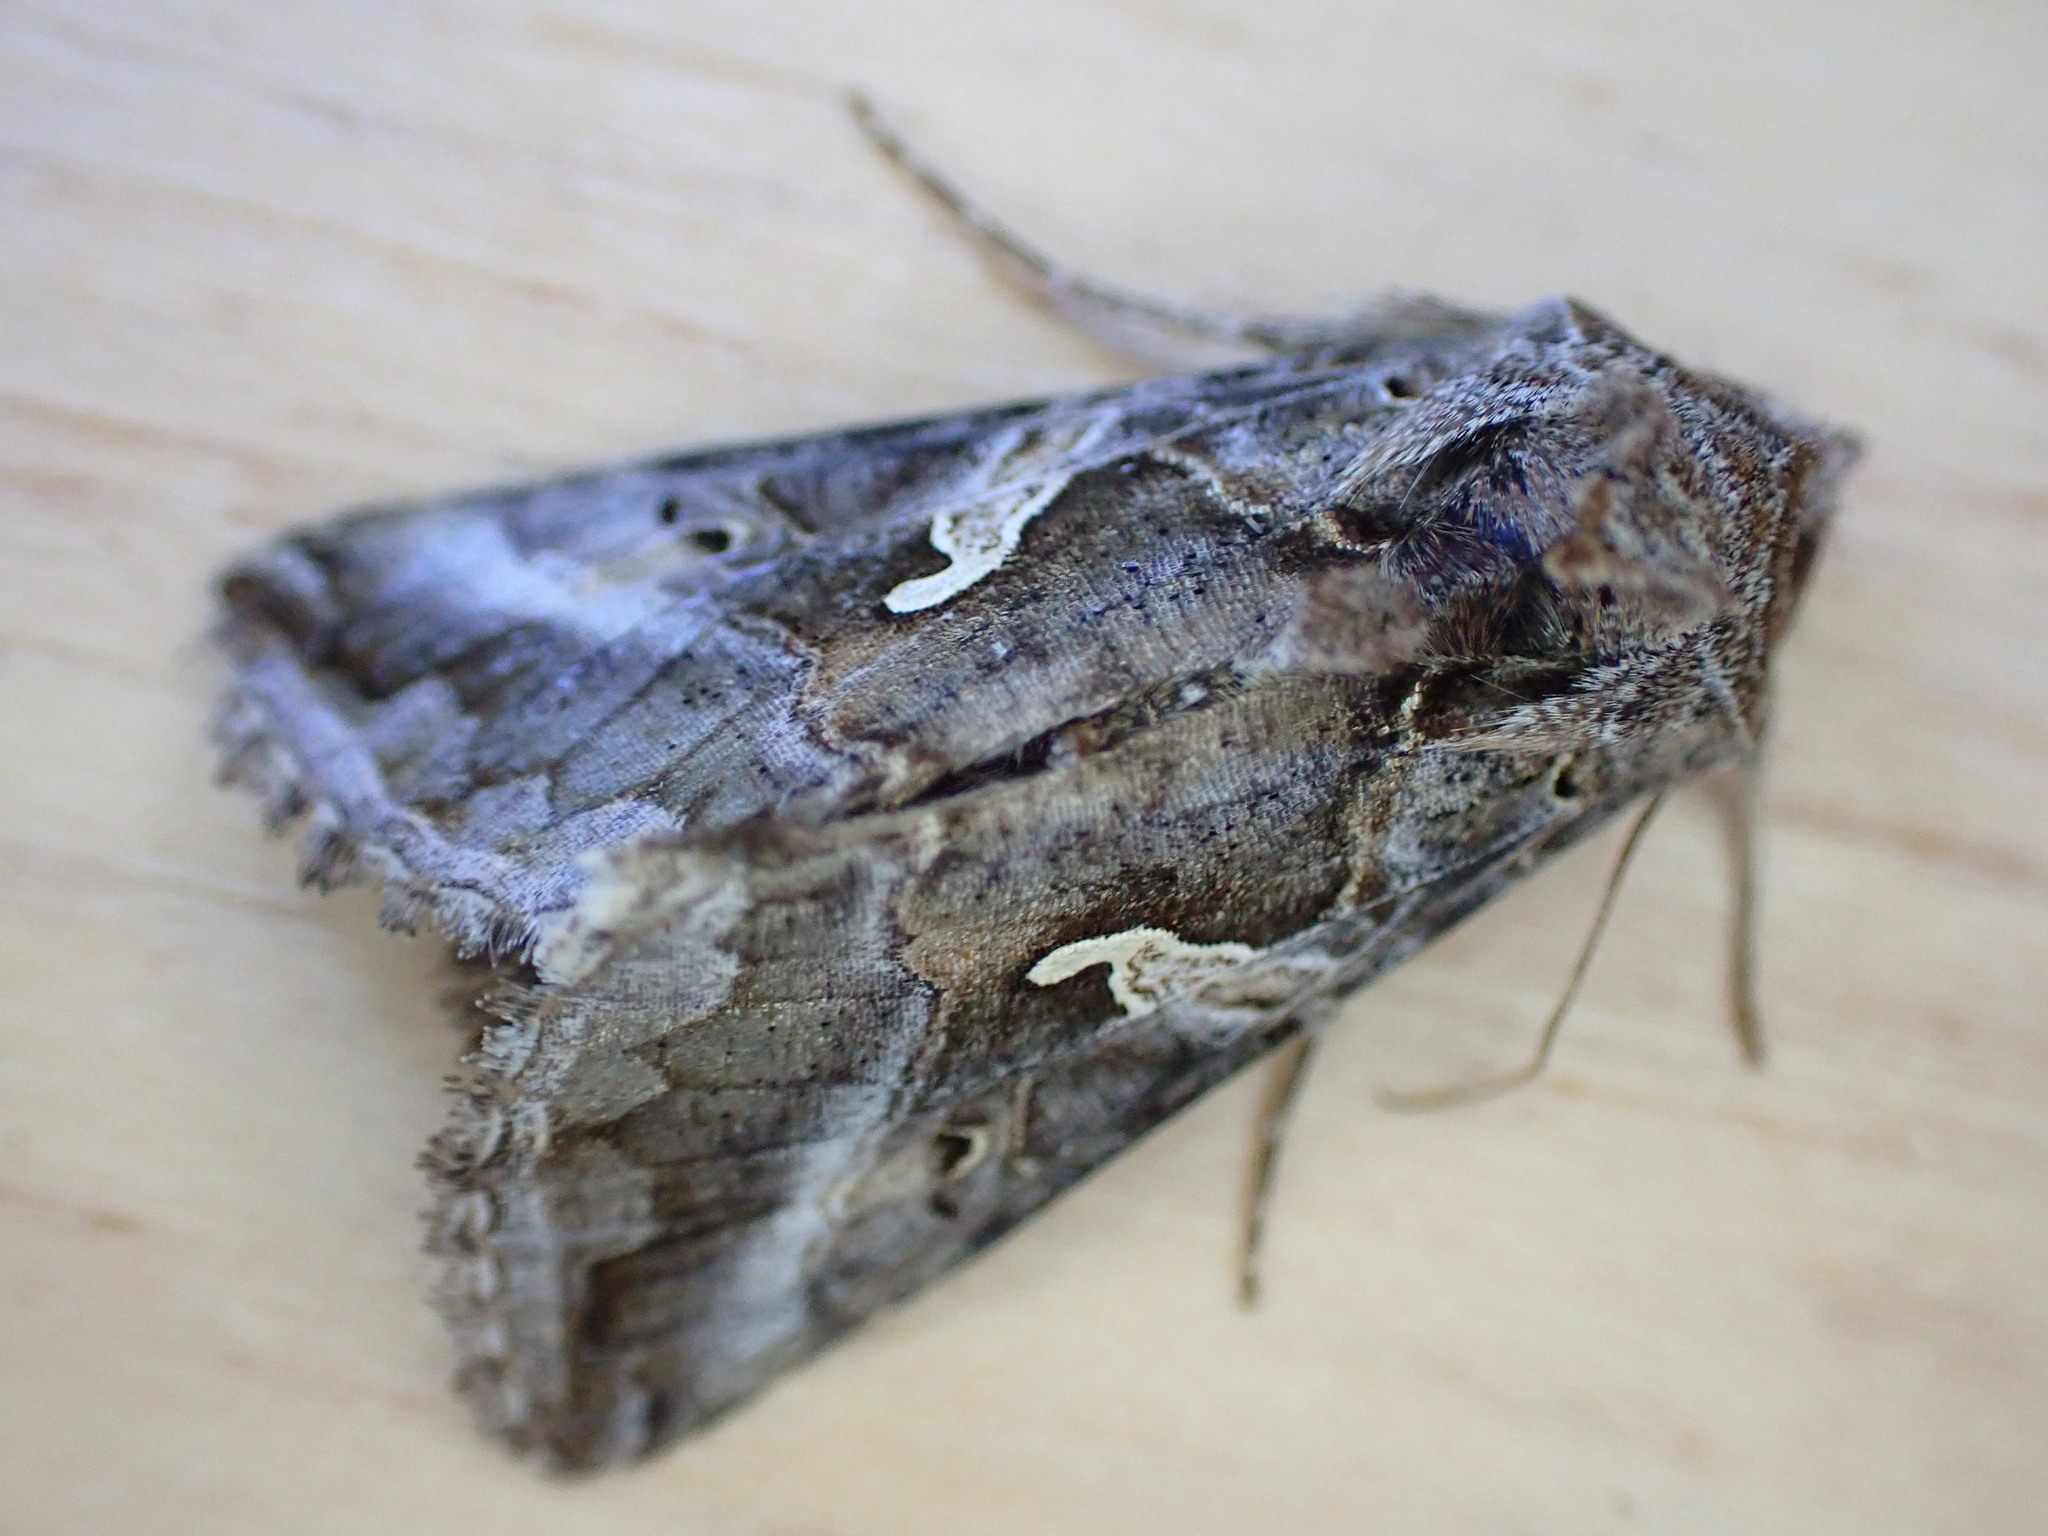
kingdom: Animalia
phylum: Arthropoda
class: Insecta
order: Lepidoptera
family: Noctuidae
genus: Autographa
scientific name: Autographa gamma
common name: Silver y
